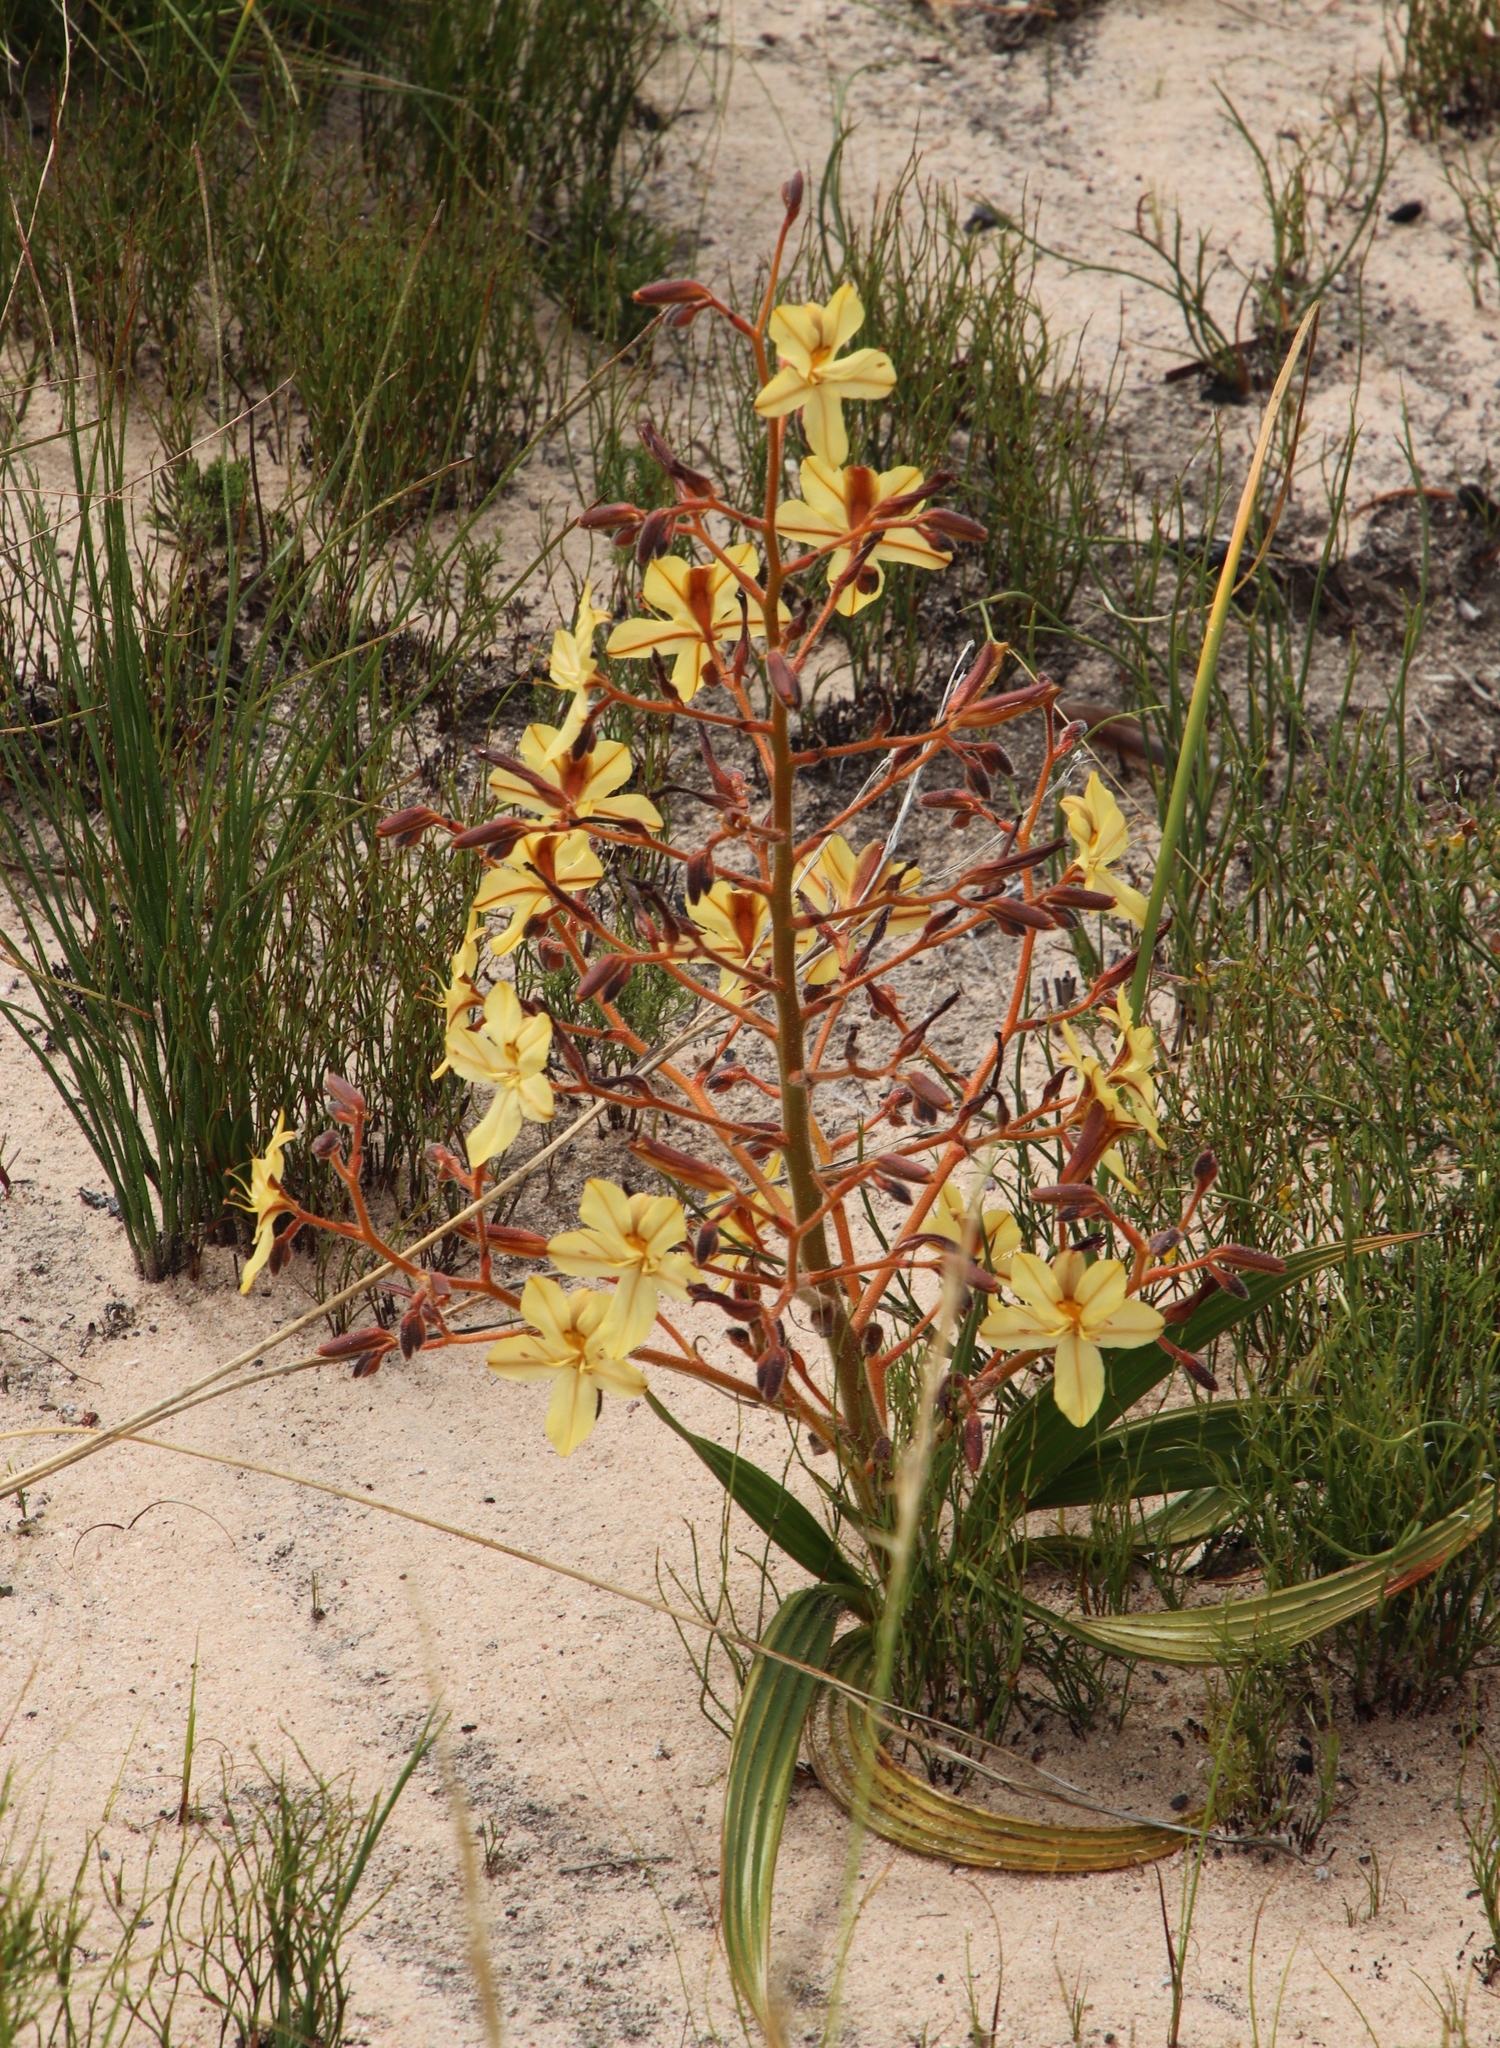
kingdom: Plantae
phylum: Tracheophyta
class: Liliopsida
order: Commelinales
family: Haemodoraceae
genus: Wachendorfia
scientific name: Wachendorfia paniculata
